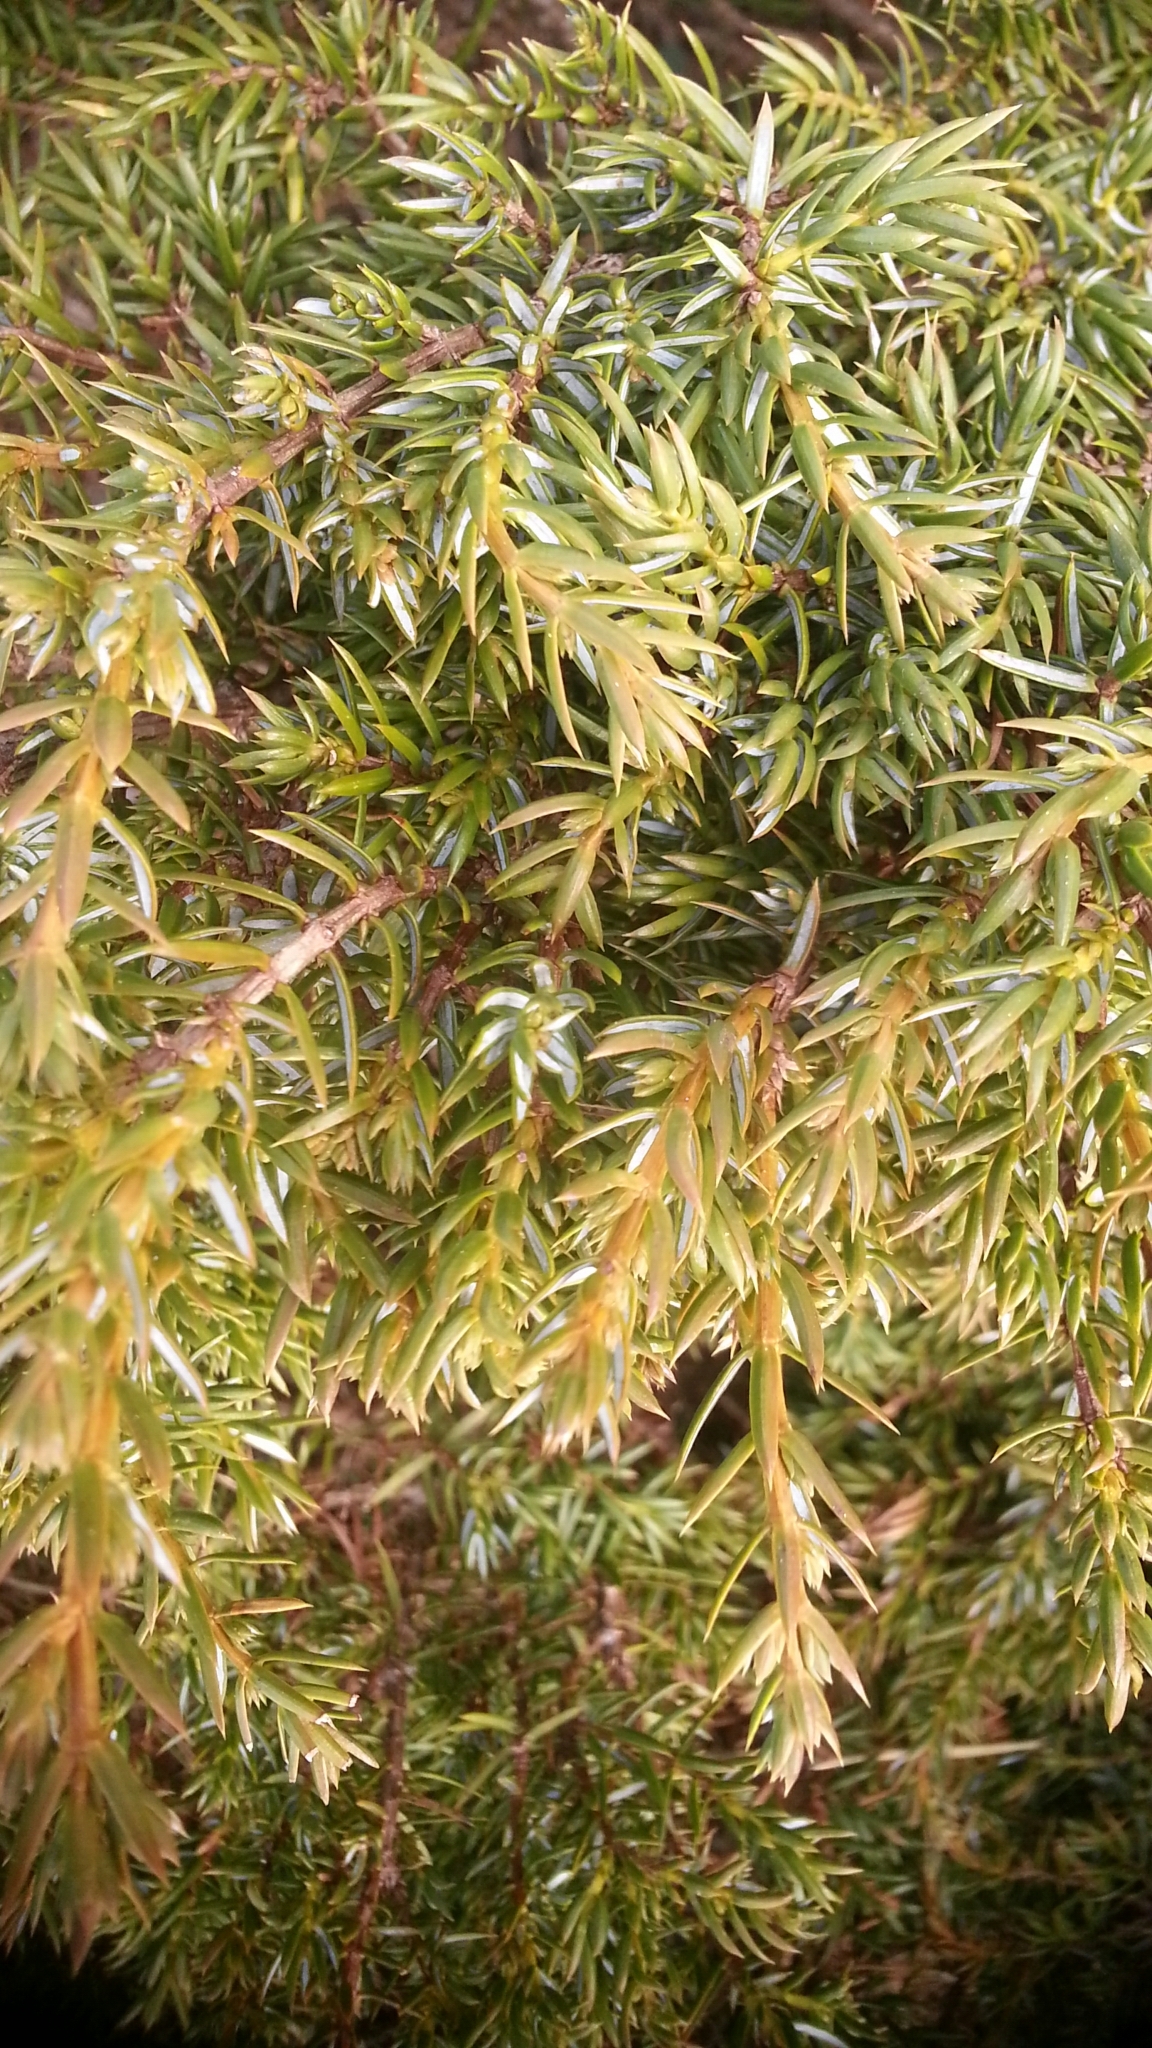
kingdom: Plantae
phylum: Tracheophyta
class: Pinopsida
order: Pinales
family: Cupressaceae
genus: Juniperus
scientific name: Juniperus communis
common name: Common juniper
